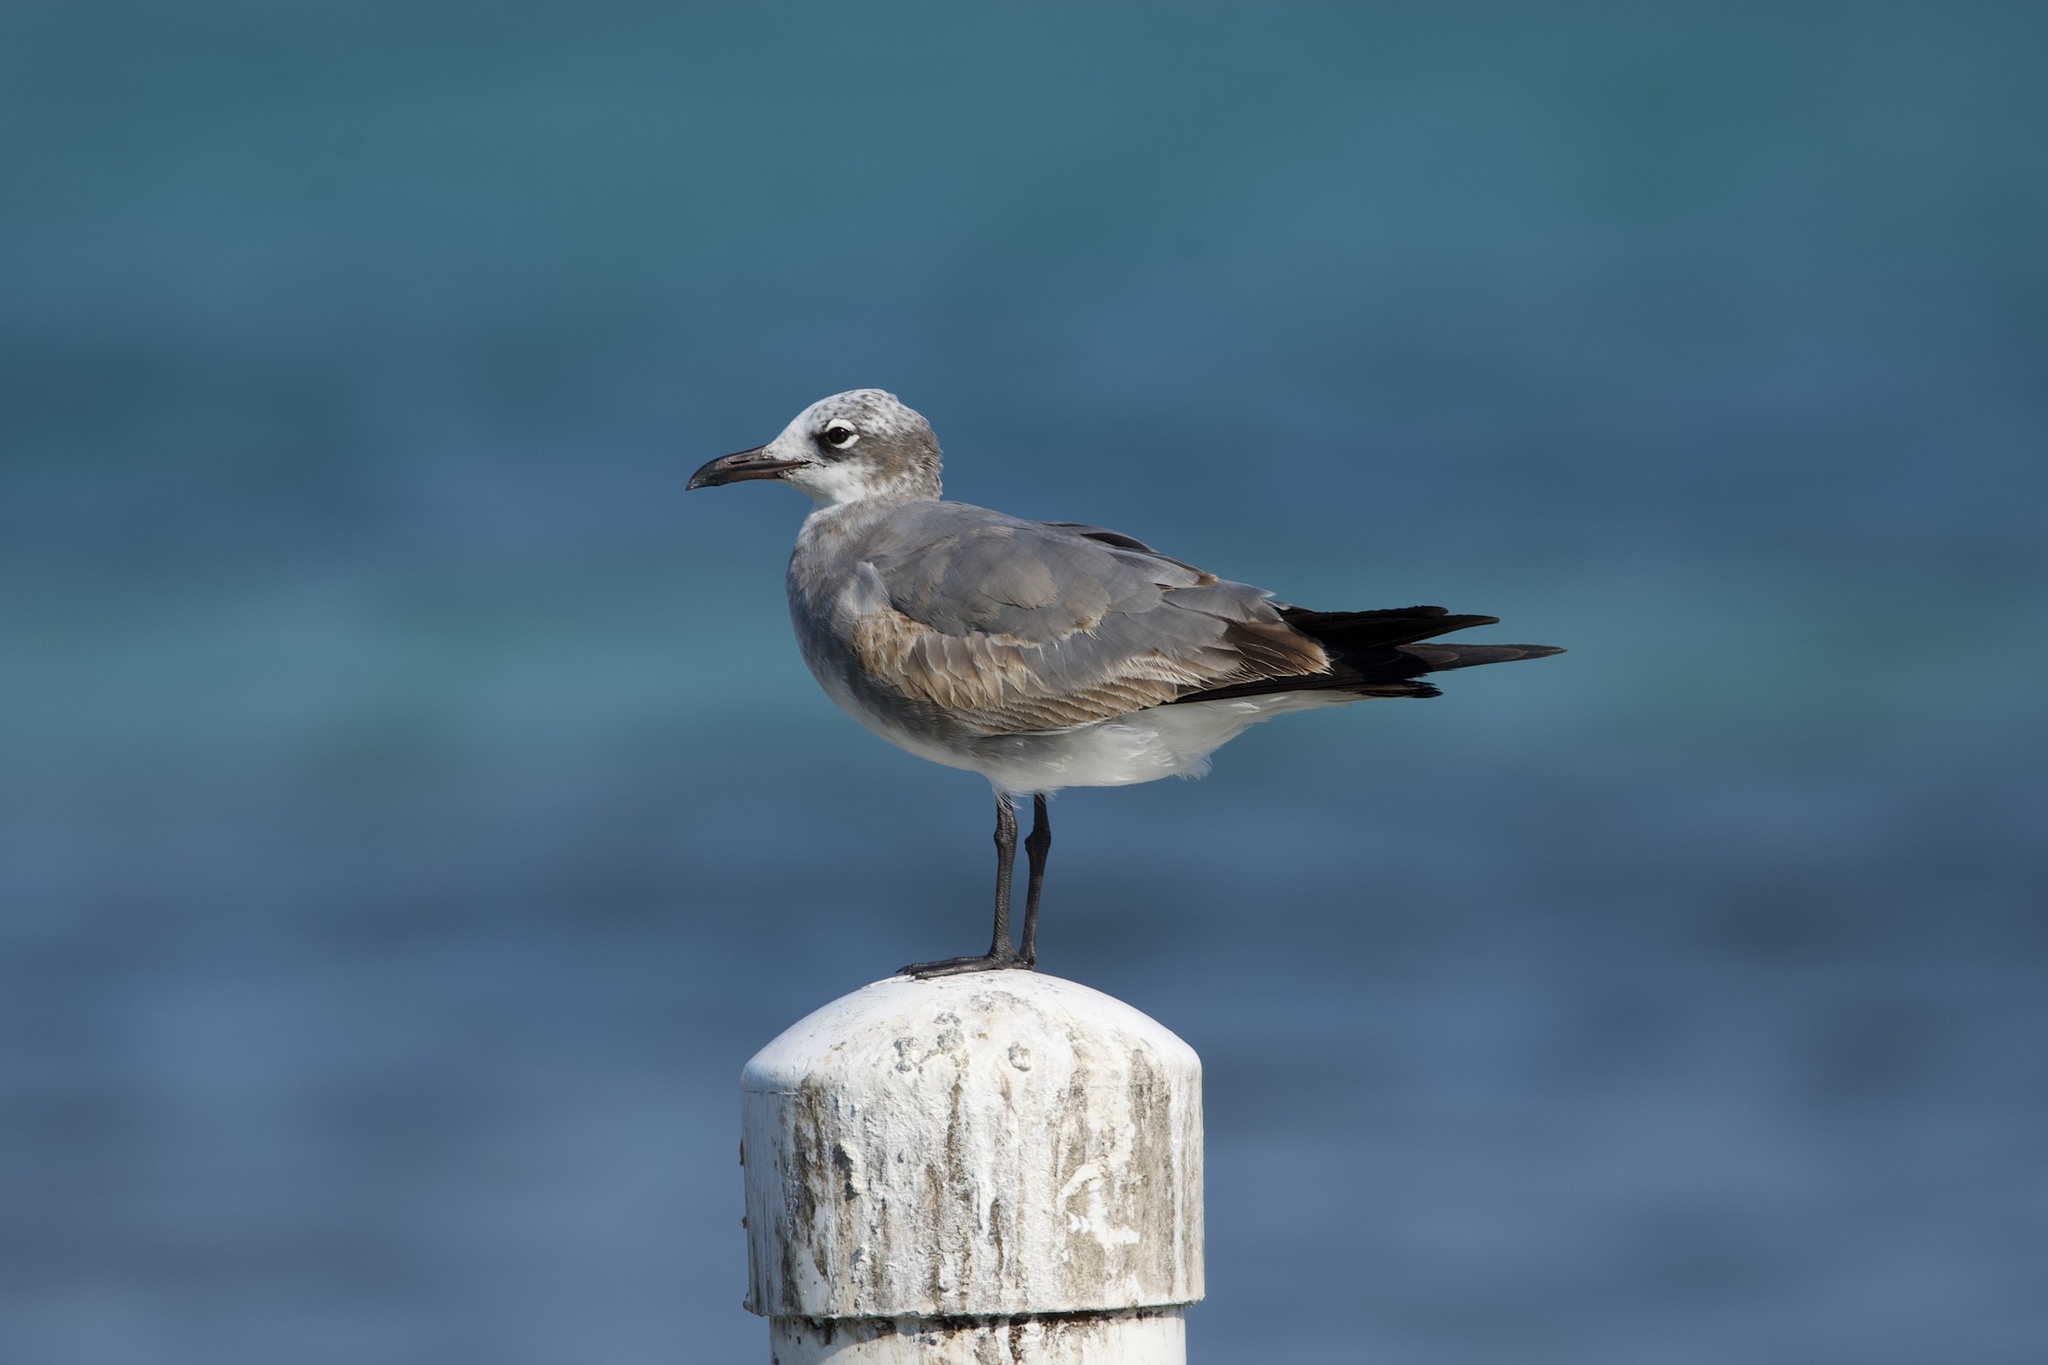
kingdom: Animalia
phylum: Chordata
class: Aves
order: Charadriiformes
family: Laridae
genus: Leucophaeus
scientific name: Leucophaeus atricilla
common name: Laughing gull
